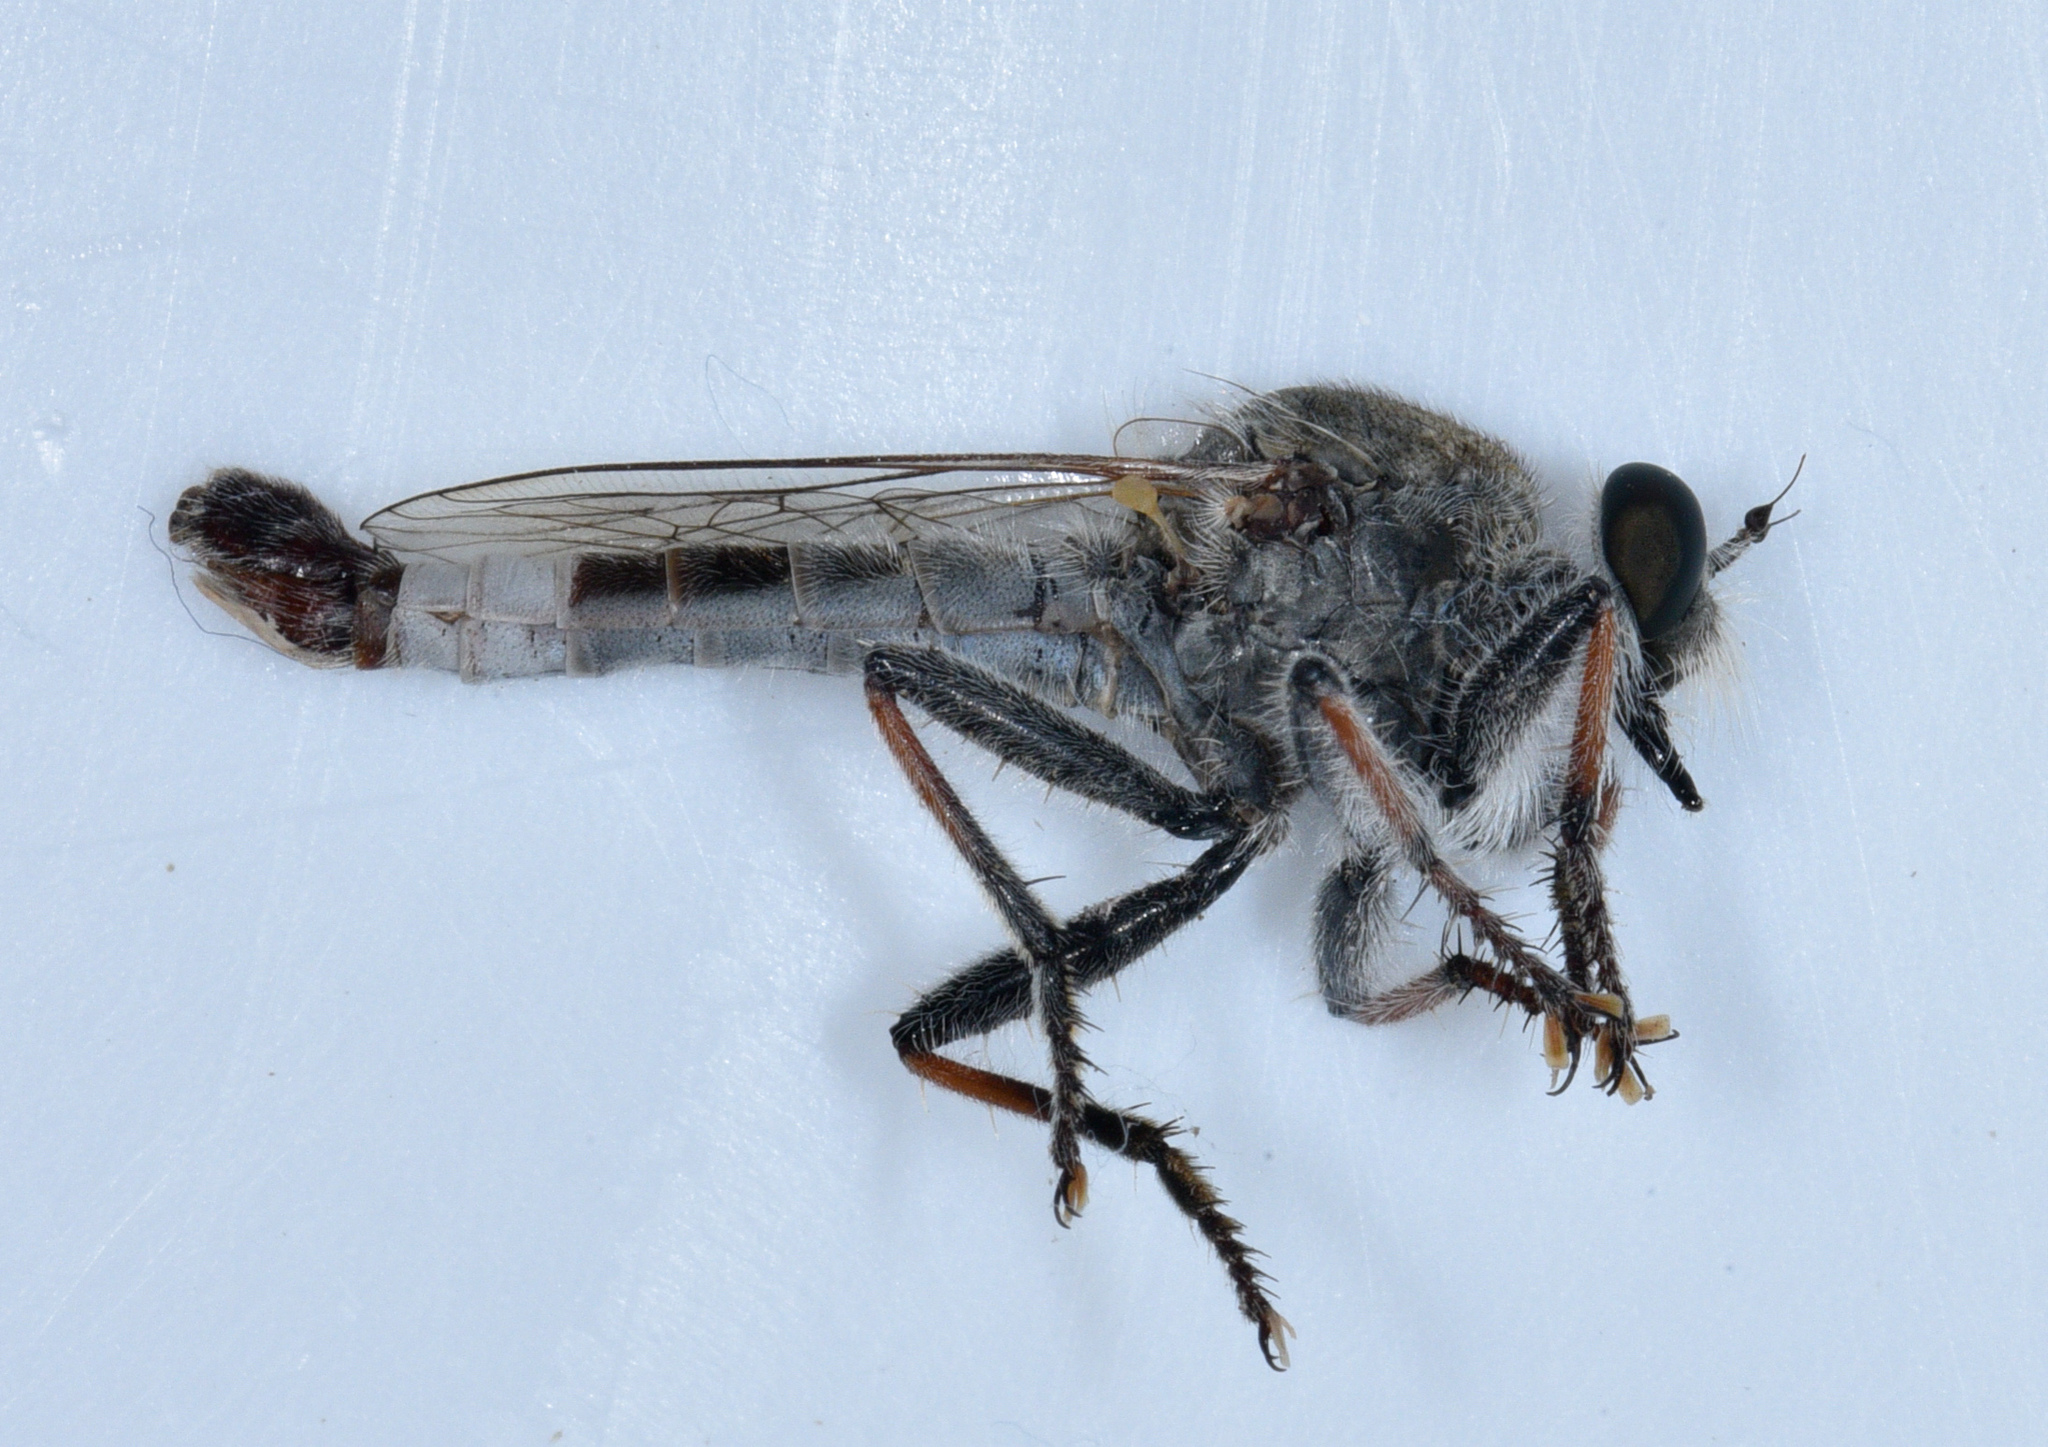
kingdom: Animalia
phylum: Arthropoda
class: Insecta
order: Diptera
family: Asilidae
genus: Efferia
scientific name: Efferia albibarbis
